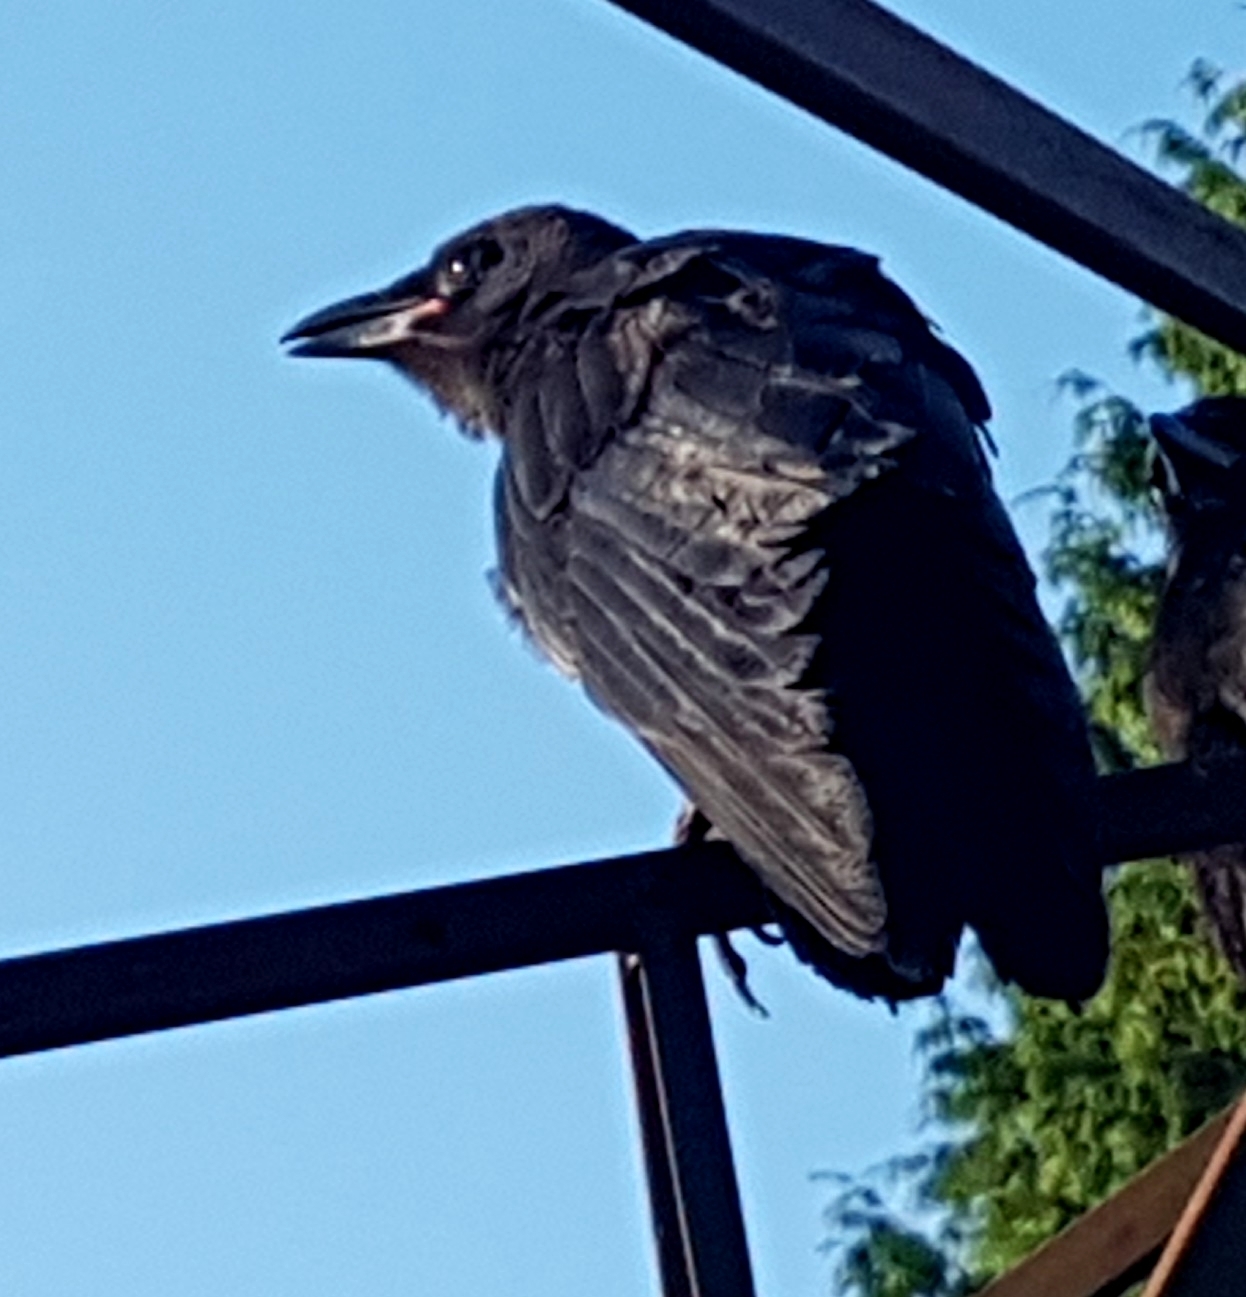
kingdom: Animalia
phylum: Chordata
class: Aves
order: Passeriformes
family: Corvidae
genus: Corvus
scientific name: Corvus brachyrhynchos
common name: American crow
